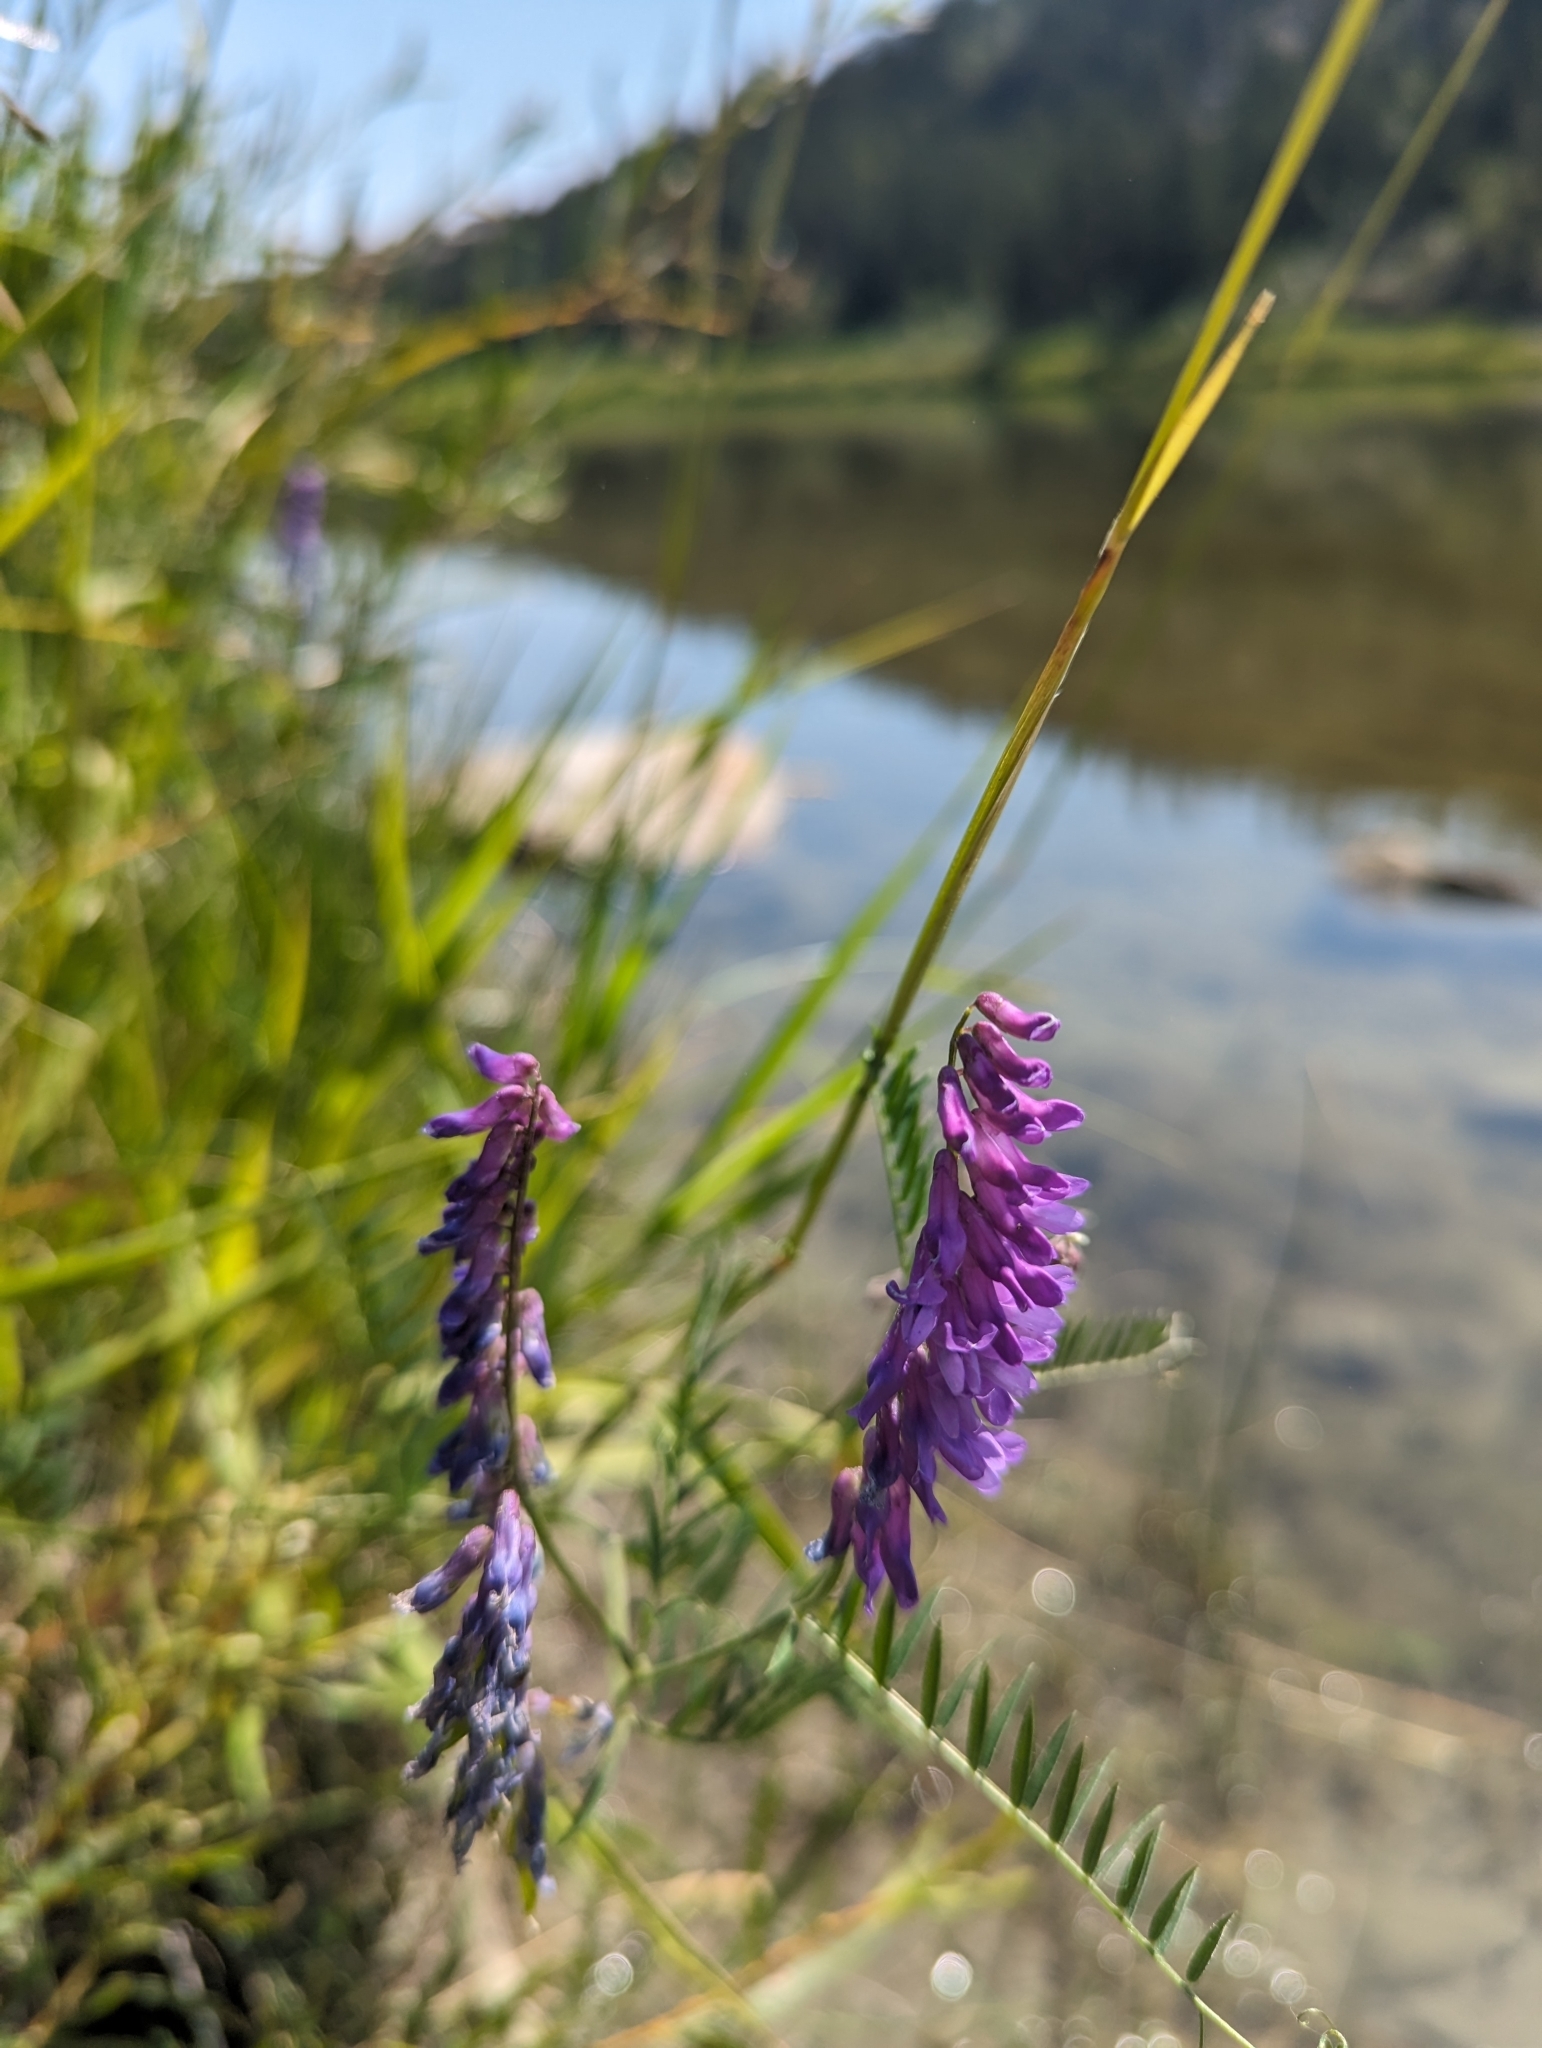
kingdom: Plantae
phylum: Tracheophyta
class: Magnoliopsida
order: Fabales
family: Fabaceae
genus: Vicia
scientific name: Vicia cracca
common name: Bird vetch
